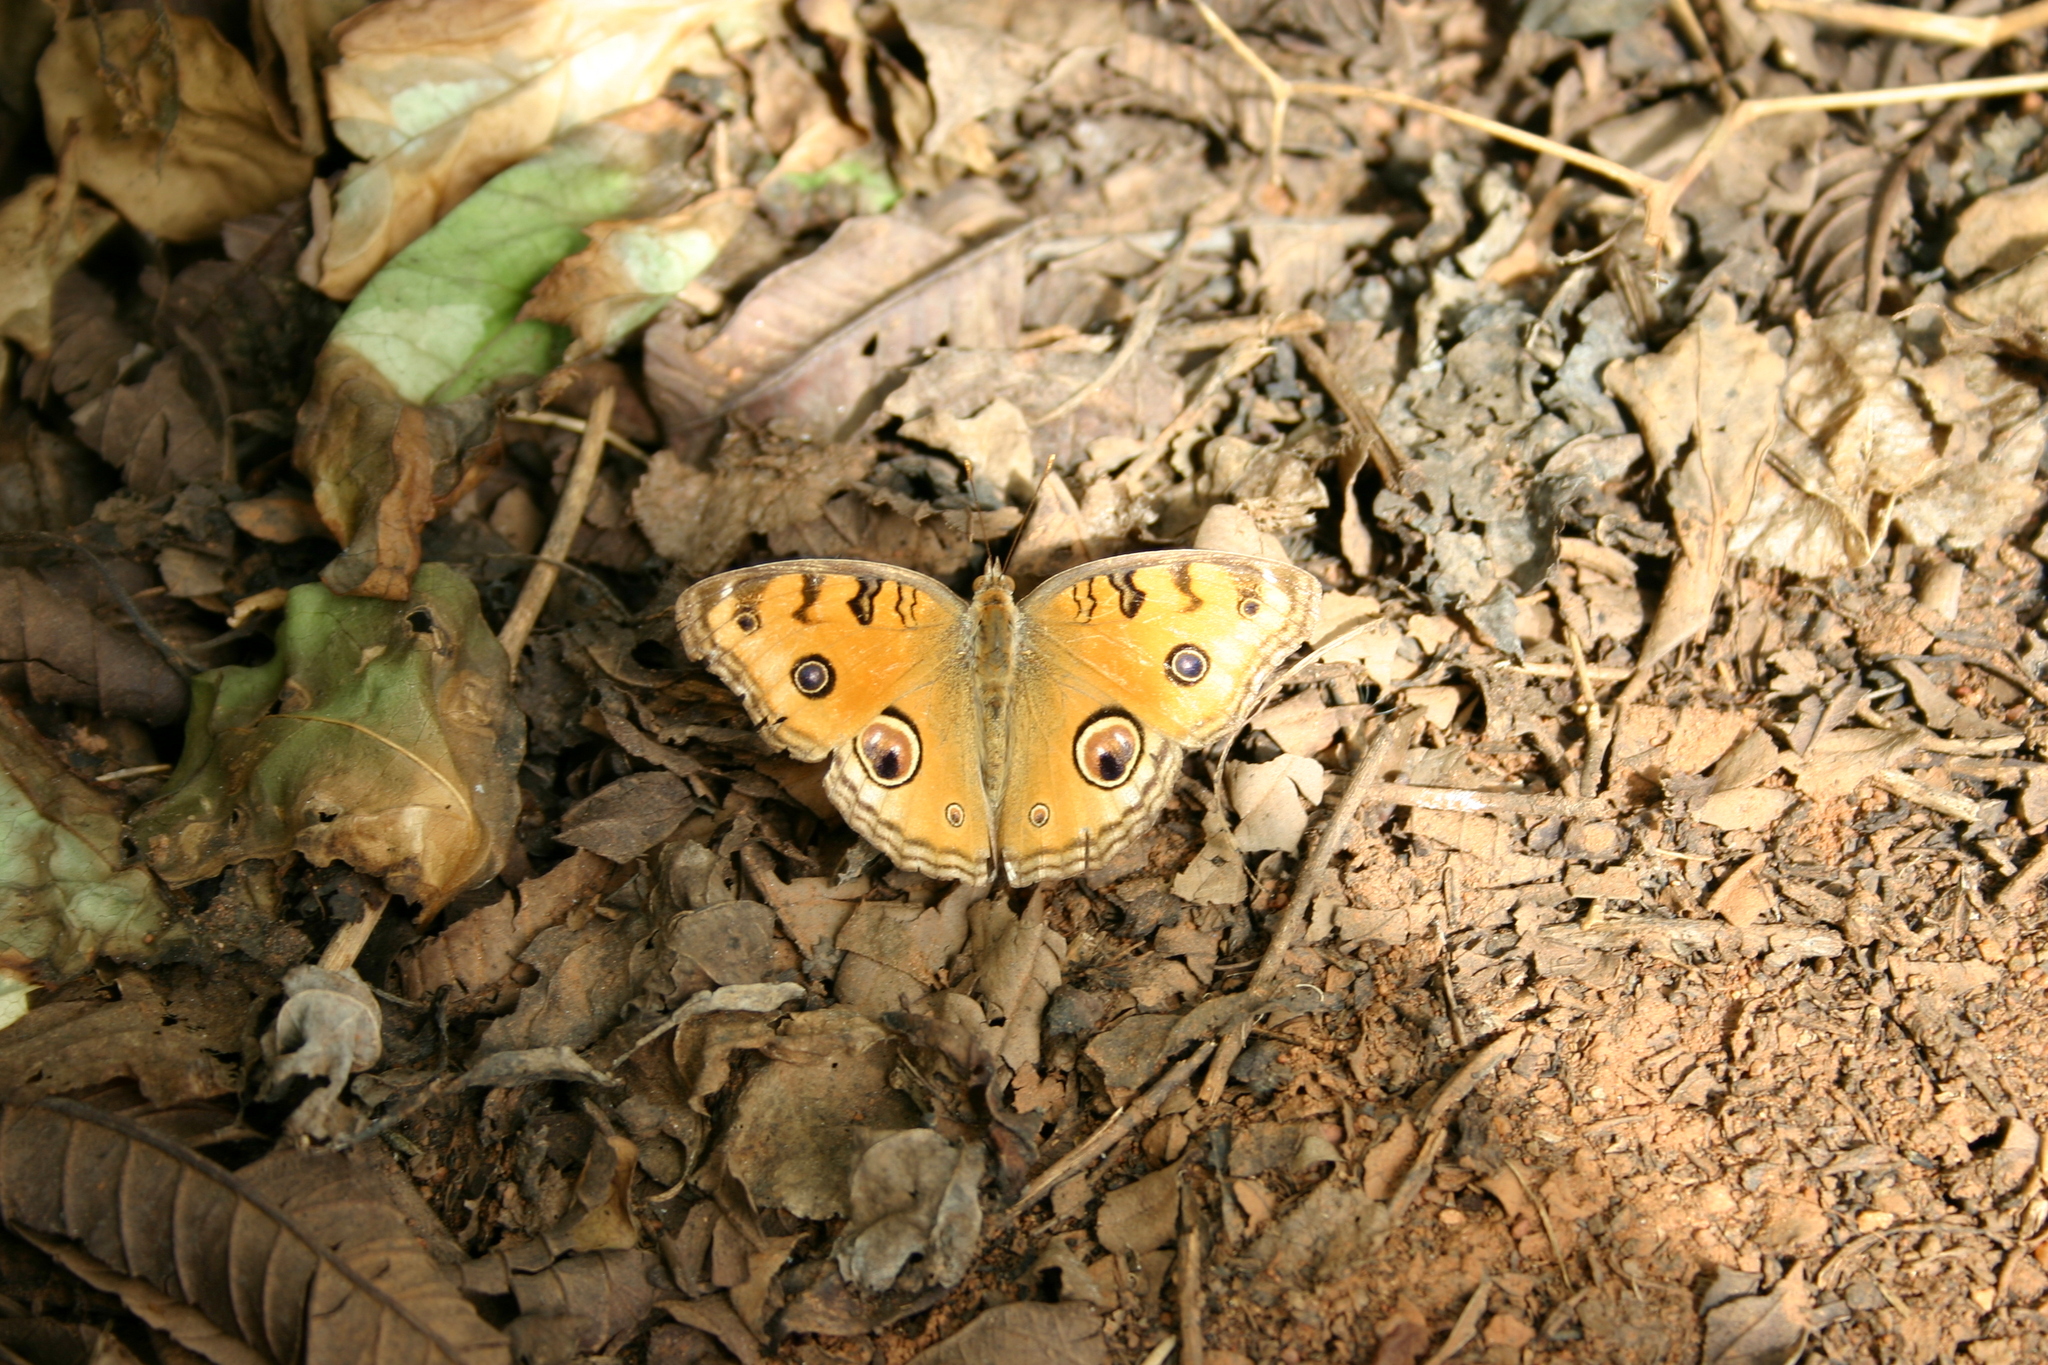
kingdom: Animalia
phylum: Arthropoda
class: Insecta
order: Lepidoptera
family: Nymphalidae
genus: Junonia
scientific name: Junonia almana
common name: Peacock pansy
